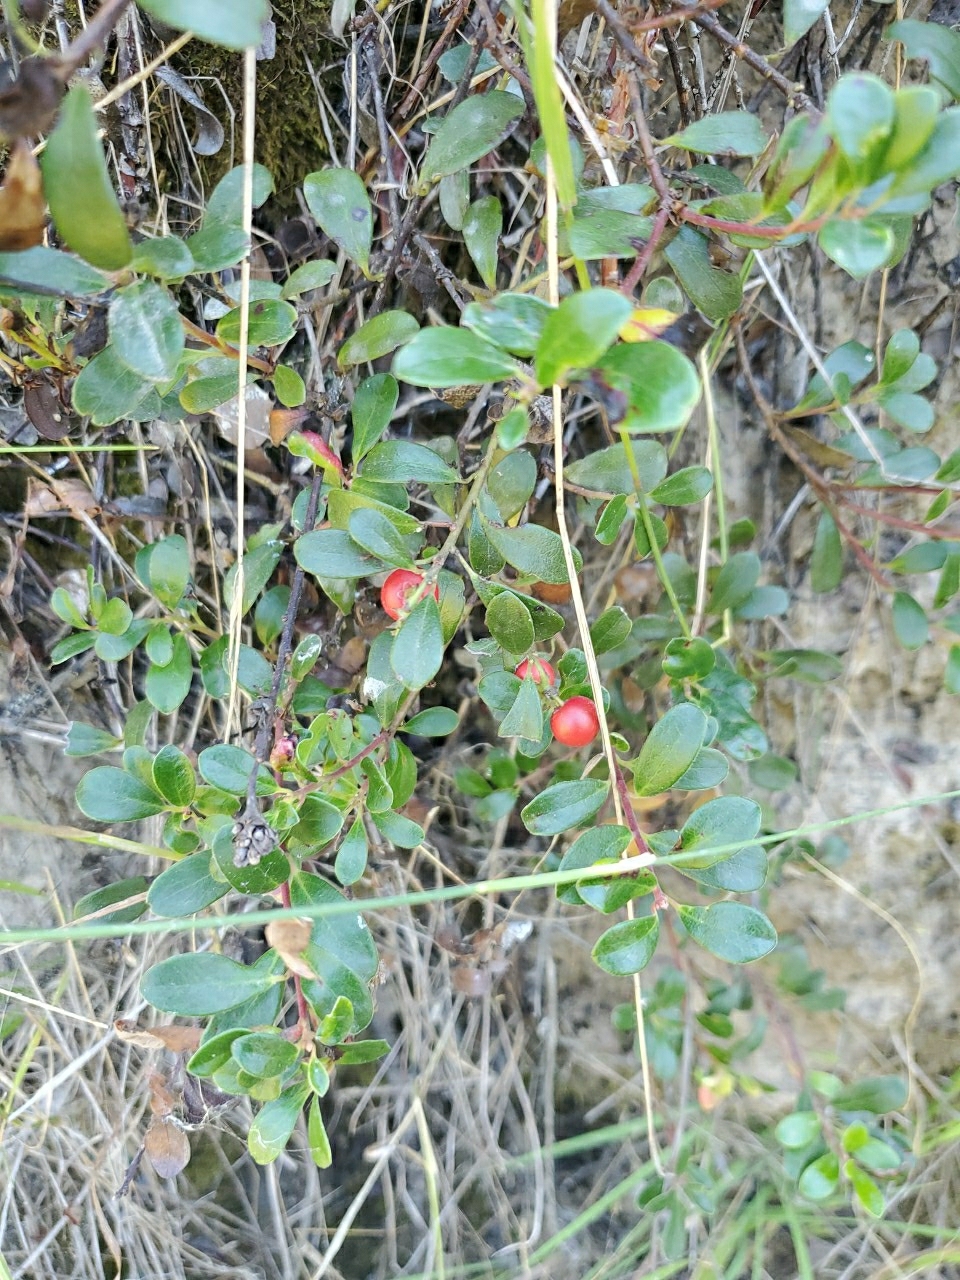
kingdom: Plantae
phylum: Tracheophyta
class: Magnoliopsida
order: Ericales
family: Ericaceae
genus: Arctostaphylos
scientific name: Arctostaphylos uva-ursi
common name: Bearberry
